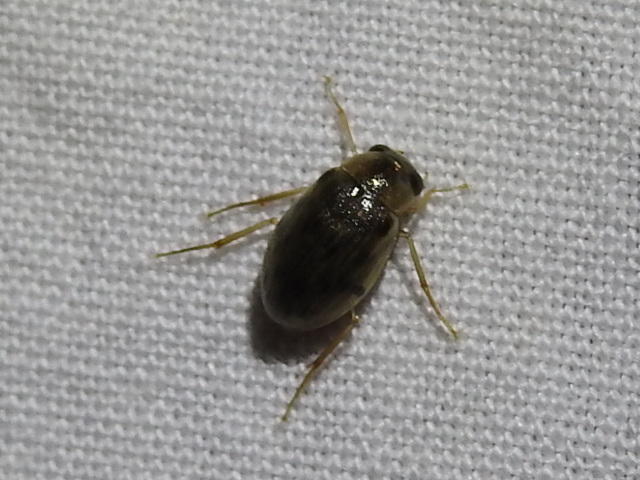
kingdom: Animalia
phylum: Arthropoda
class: Insecta
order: Coleoptera
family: Hydrophilidae
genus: Berosus
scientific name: Berosus
